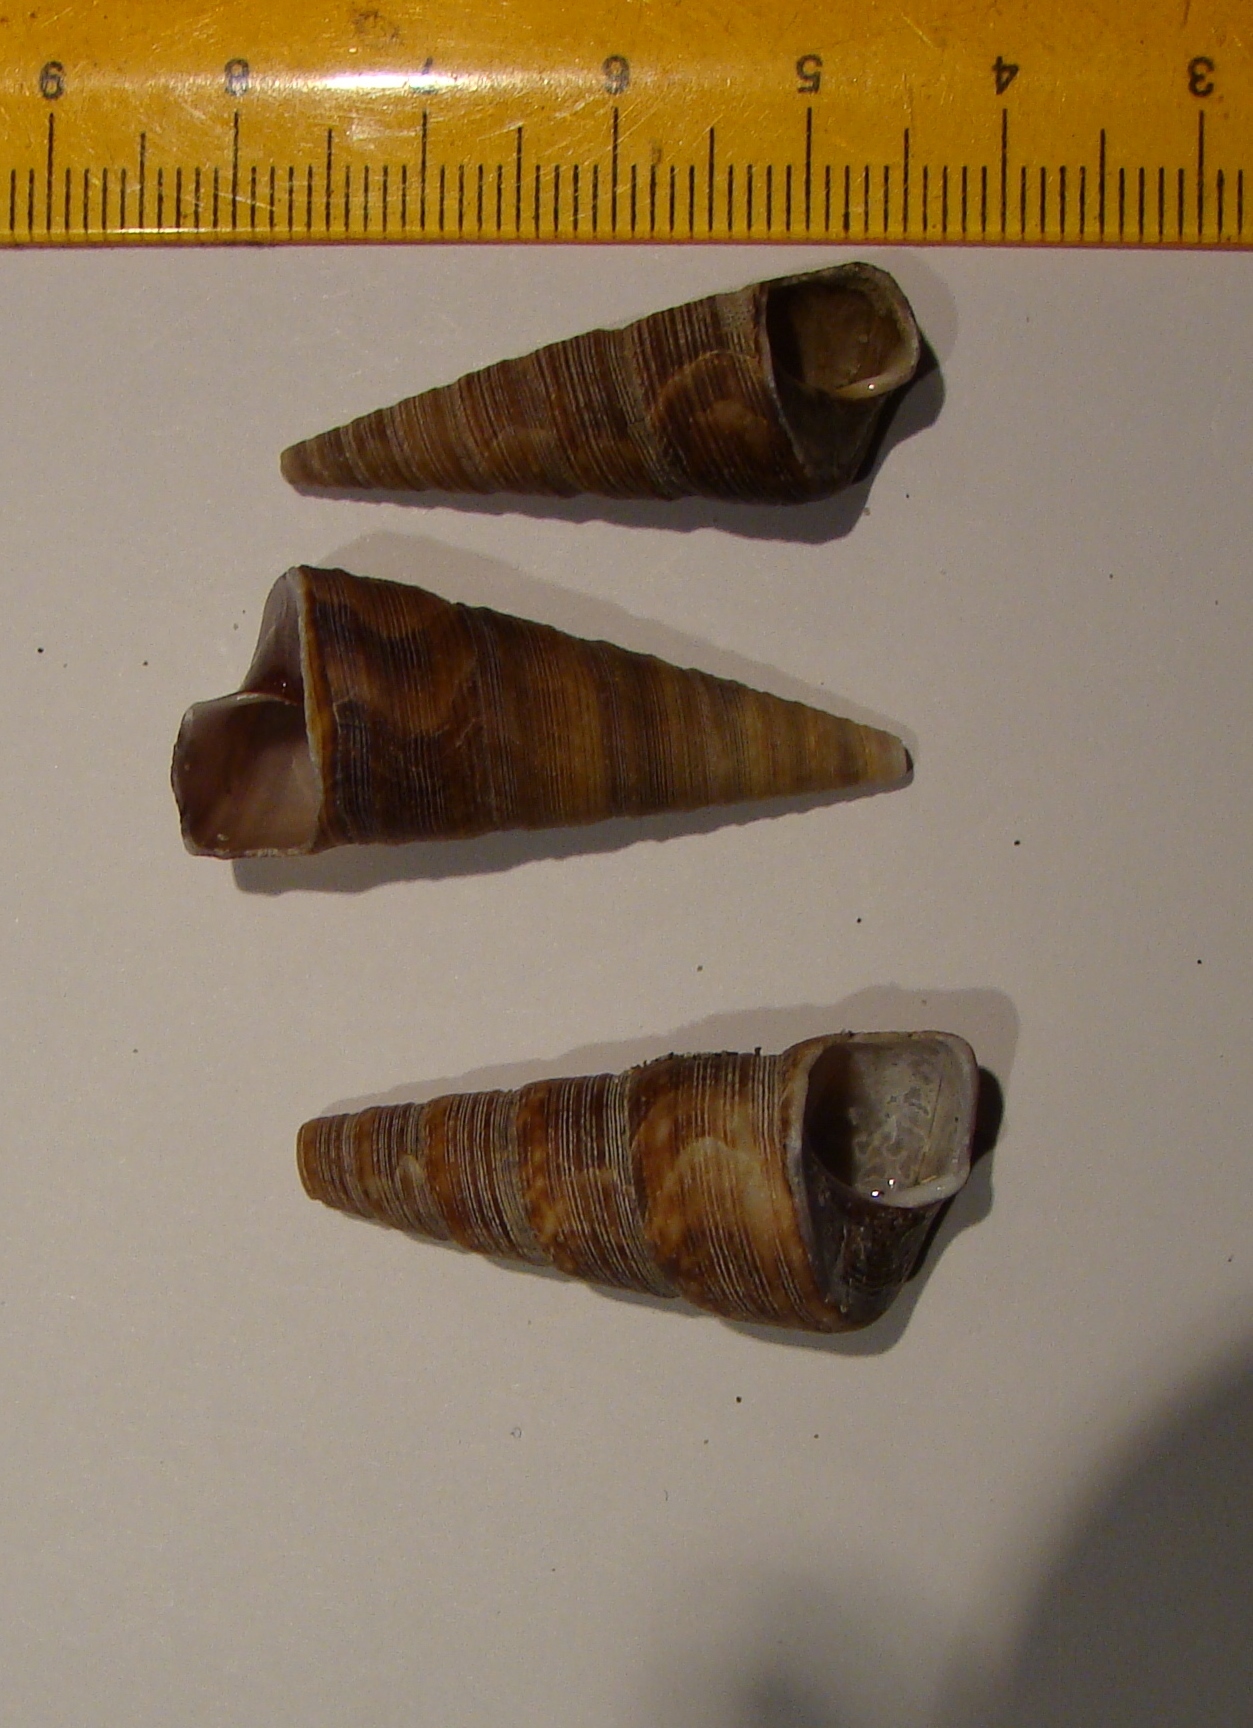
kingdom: Animalia
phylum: Mollusca
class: Gastropoda
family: Turritellidae
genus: Maoricolpus
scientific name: Maoricolpus roseus
